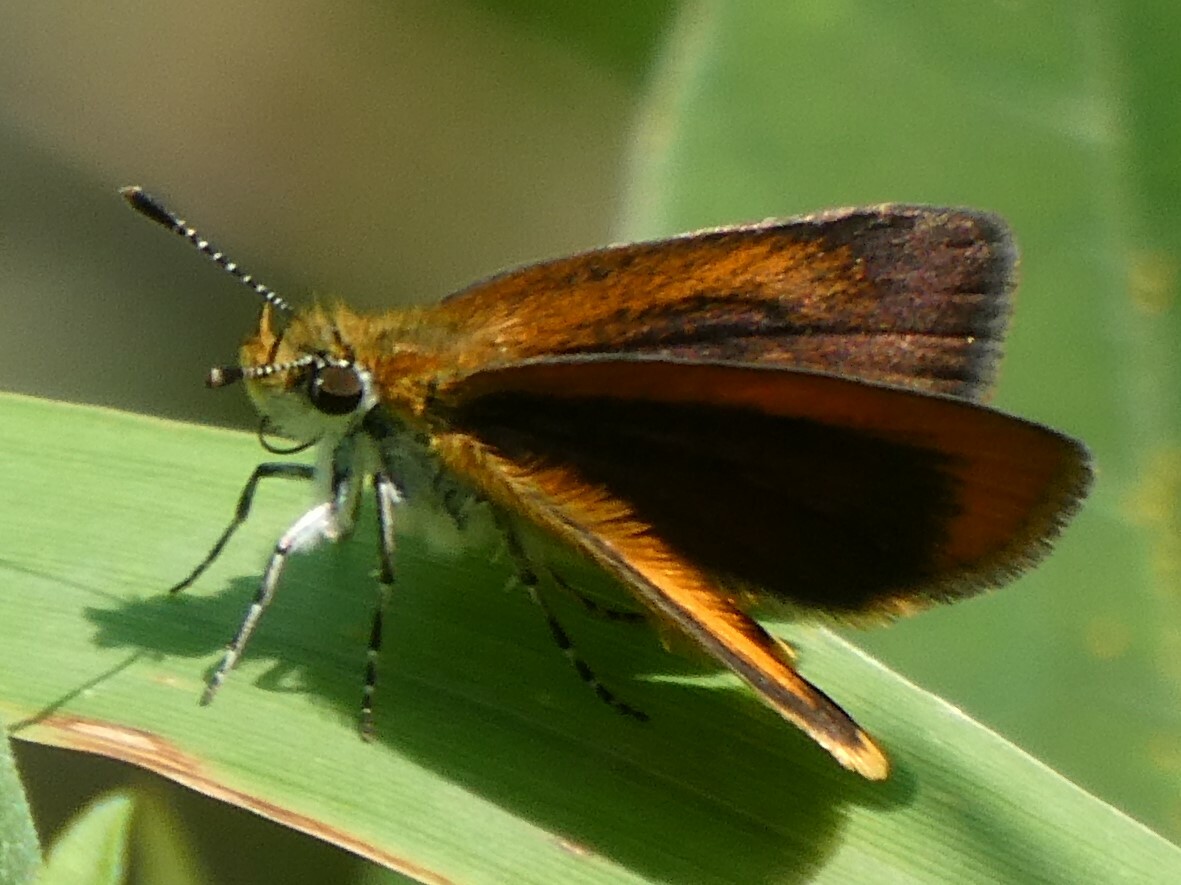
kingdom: Animalia
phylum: Arthropoda
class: Insecta
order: Lepidoptera
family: Hesperiidae
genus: Ancyloxypha
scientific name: Ancyloxypha numitor
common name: Least skipper
